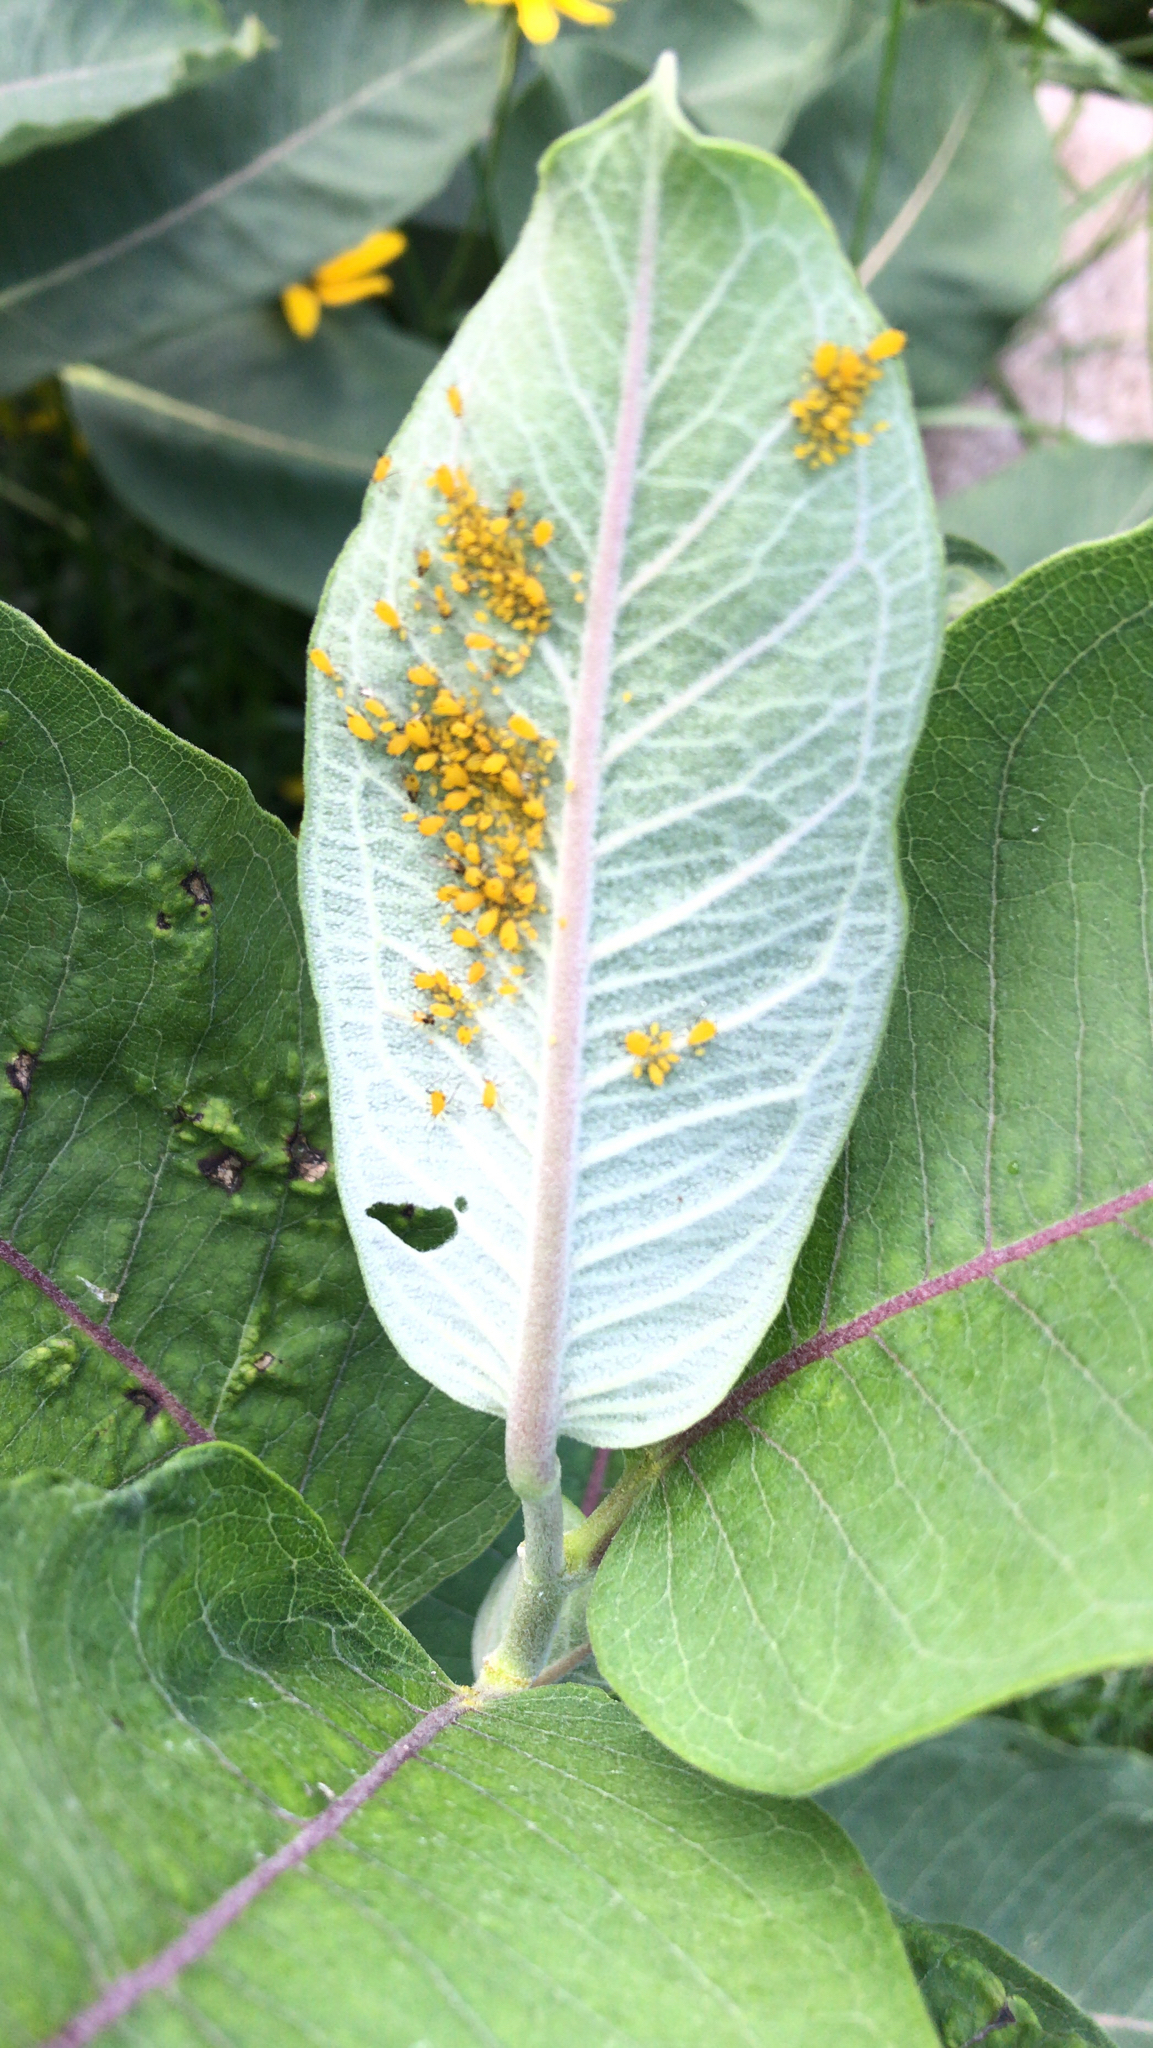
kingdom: Animalia
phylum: Arthropoda
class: Insecta
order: Hemiptera
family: Aphididae
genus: Aphis
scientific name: Aphis nerii
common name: Oleander aphid
